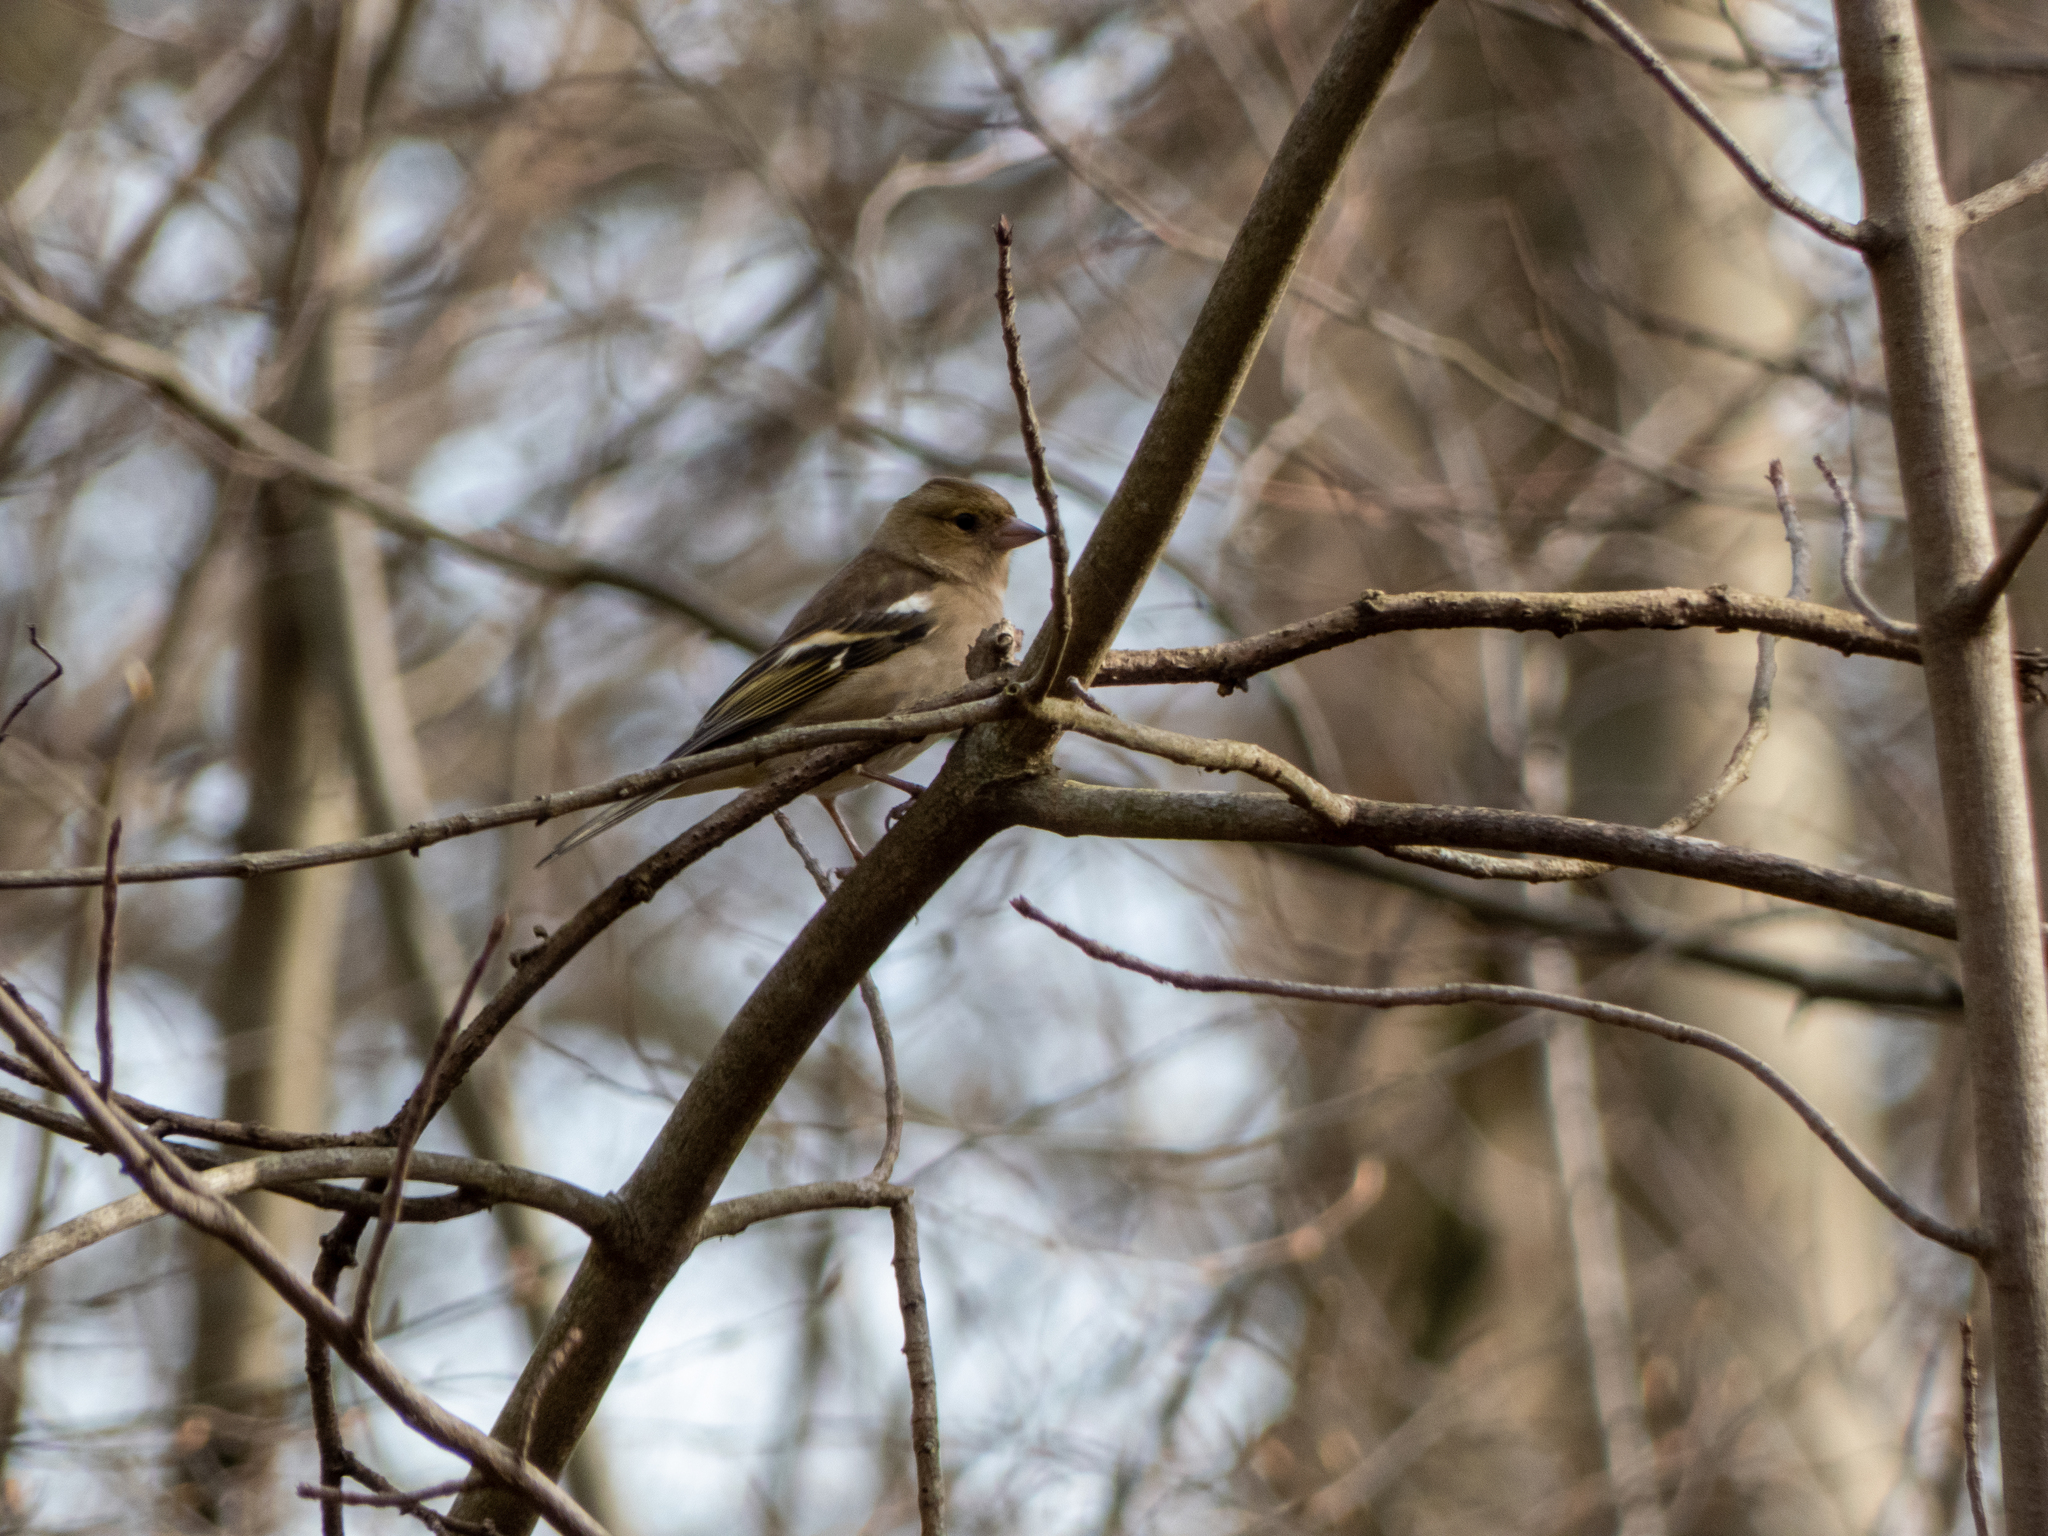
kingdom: Animalia
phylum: Chordata
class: Aves
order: Passeriformes
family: Fringillidae
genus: Fringilla
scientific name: Fringilla coelebs
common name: Common chaffinch
